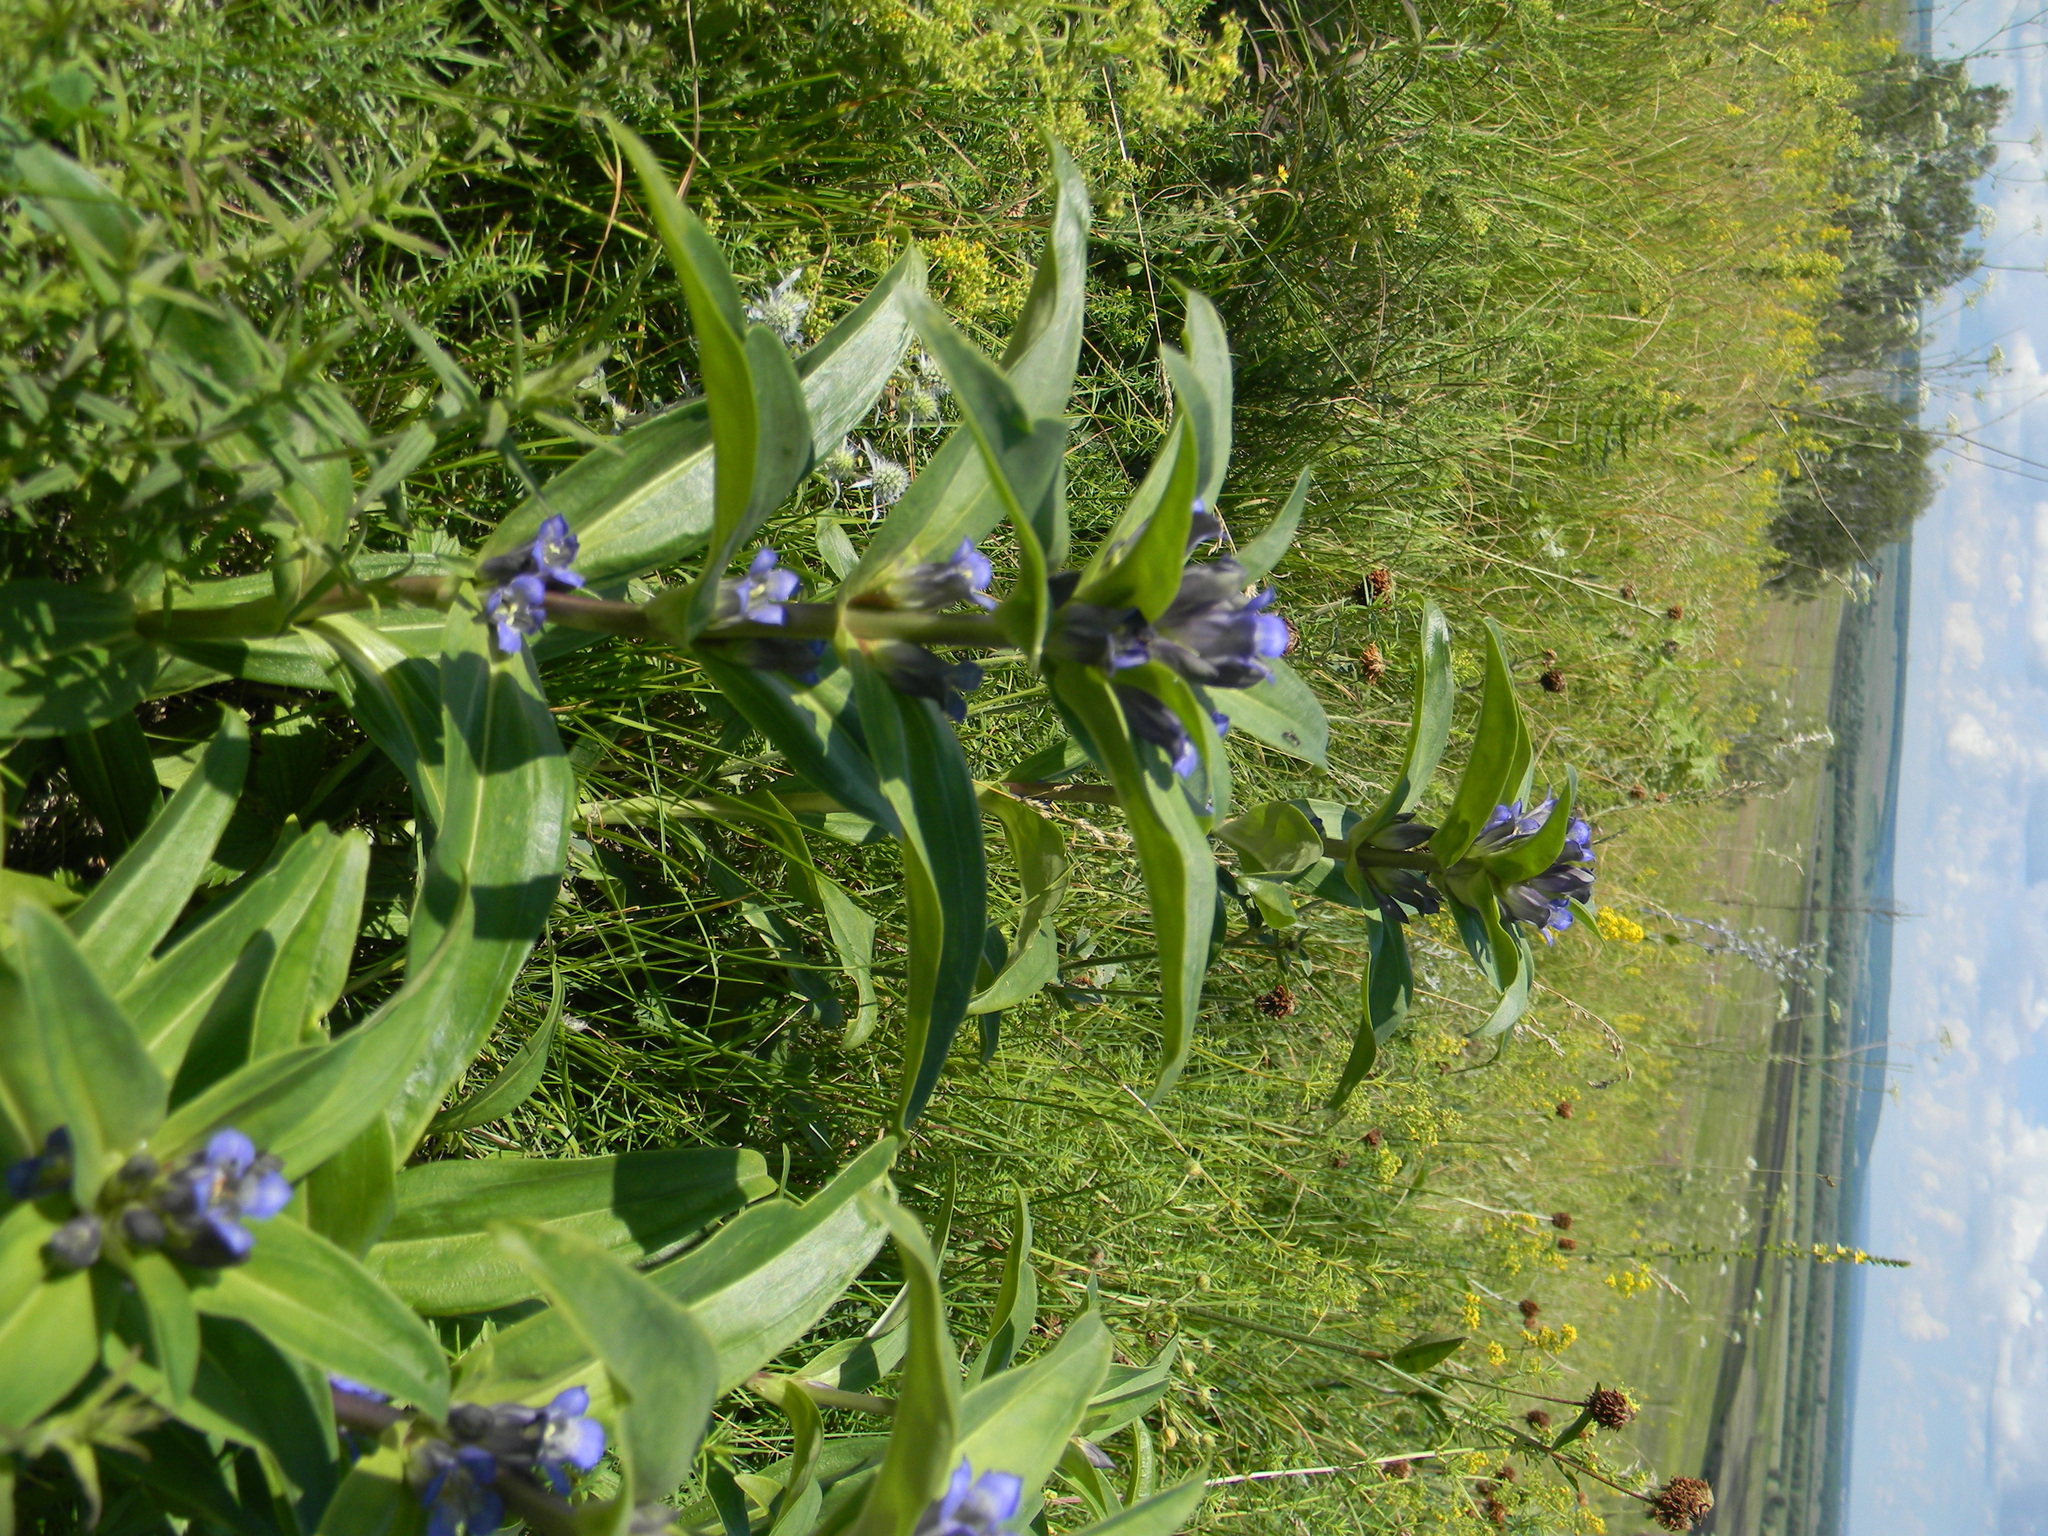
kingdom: Plantae
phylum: Tracheophyta
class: Magnoliopsida
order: Gentianales
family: Gentianaceae
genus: Gentiana
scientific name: Gentiana cruciata
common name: Cross gentian
